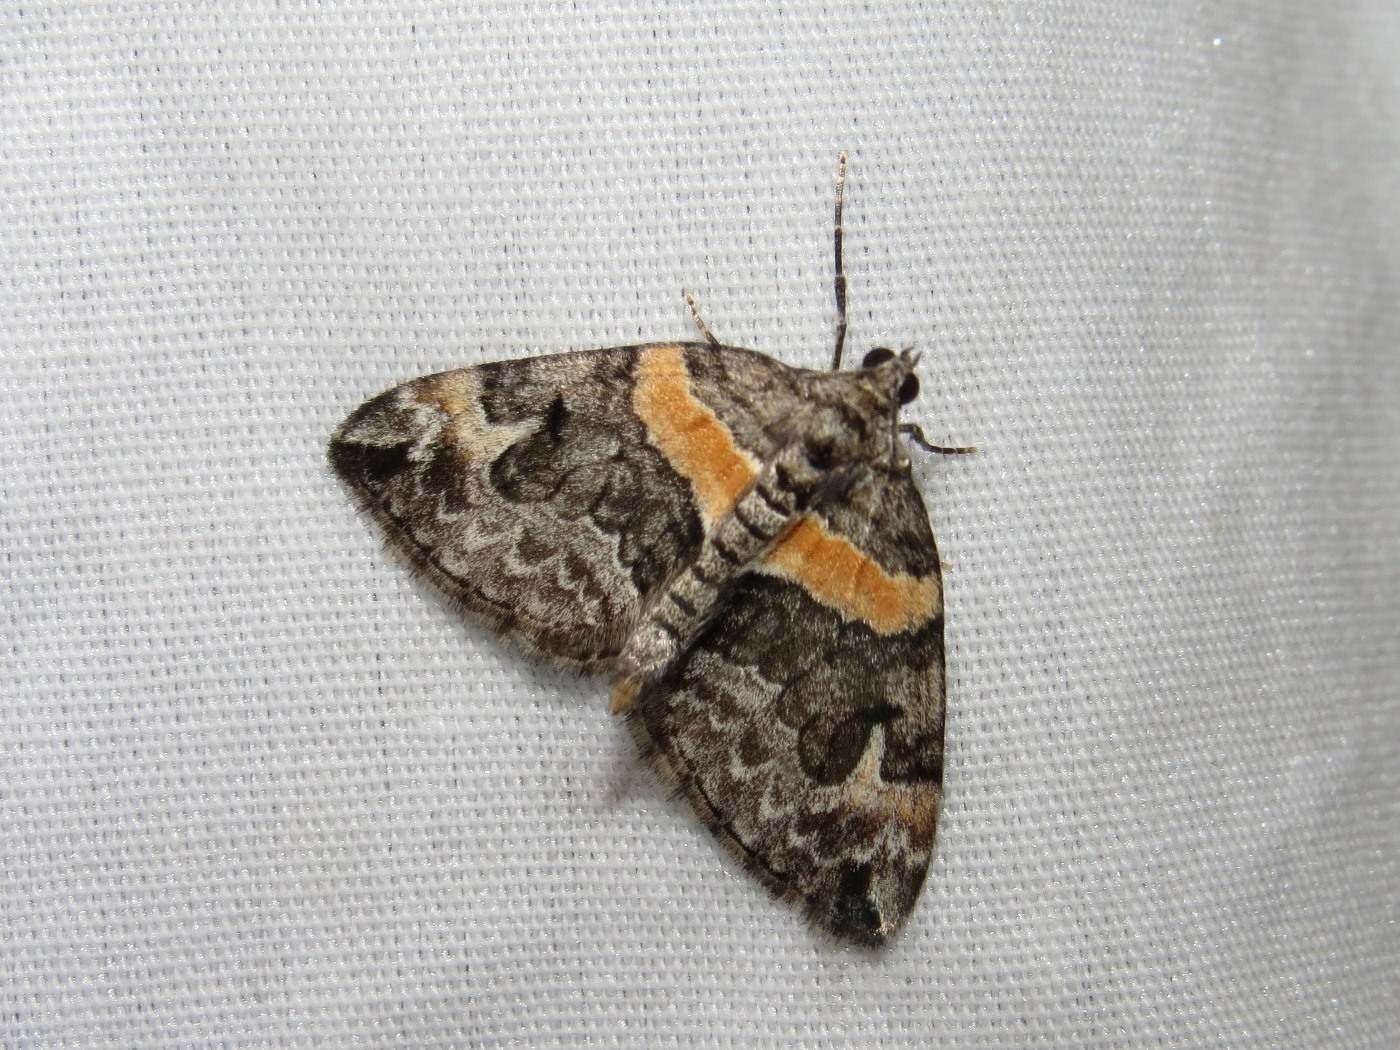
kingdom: Animalia
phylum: Arthropoda
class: Insecta
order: Lepidoptera
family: Geometridae
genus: Dysstroma
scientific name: Dysstroma hersiliata
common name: Orange-barred carpet
